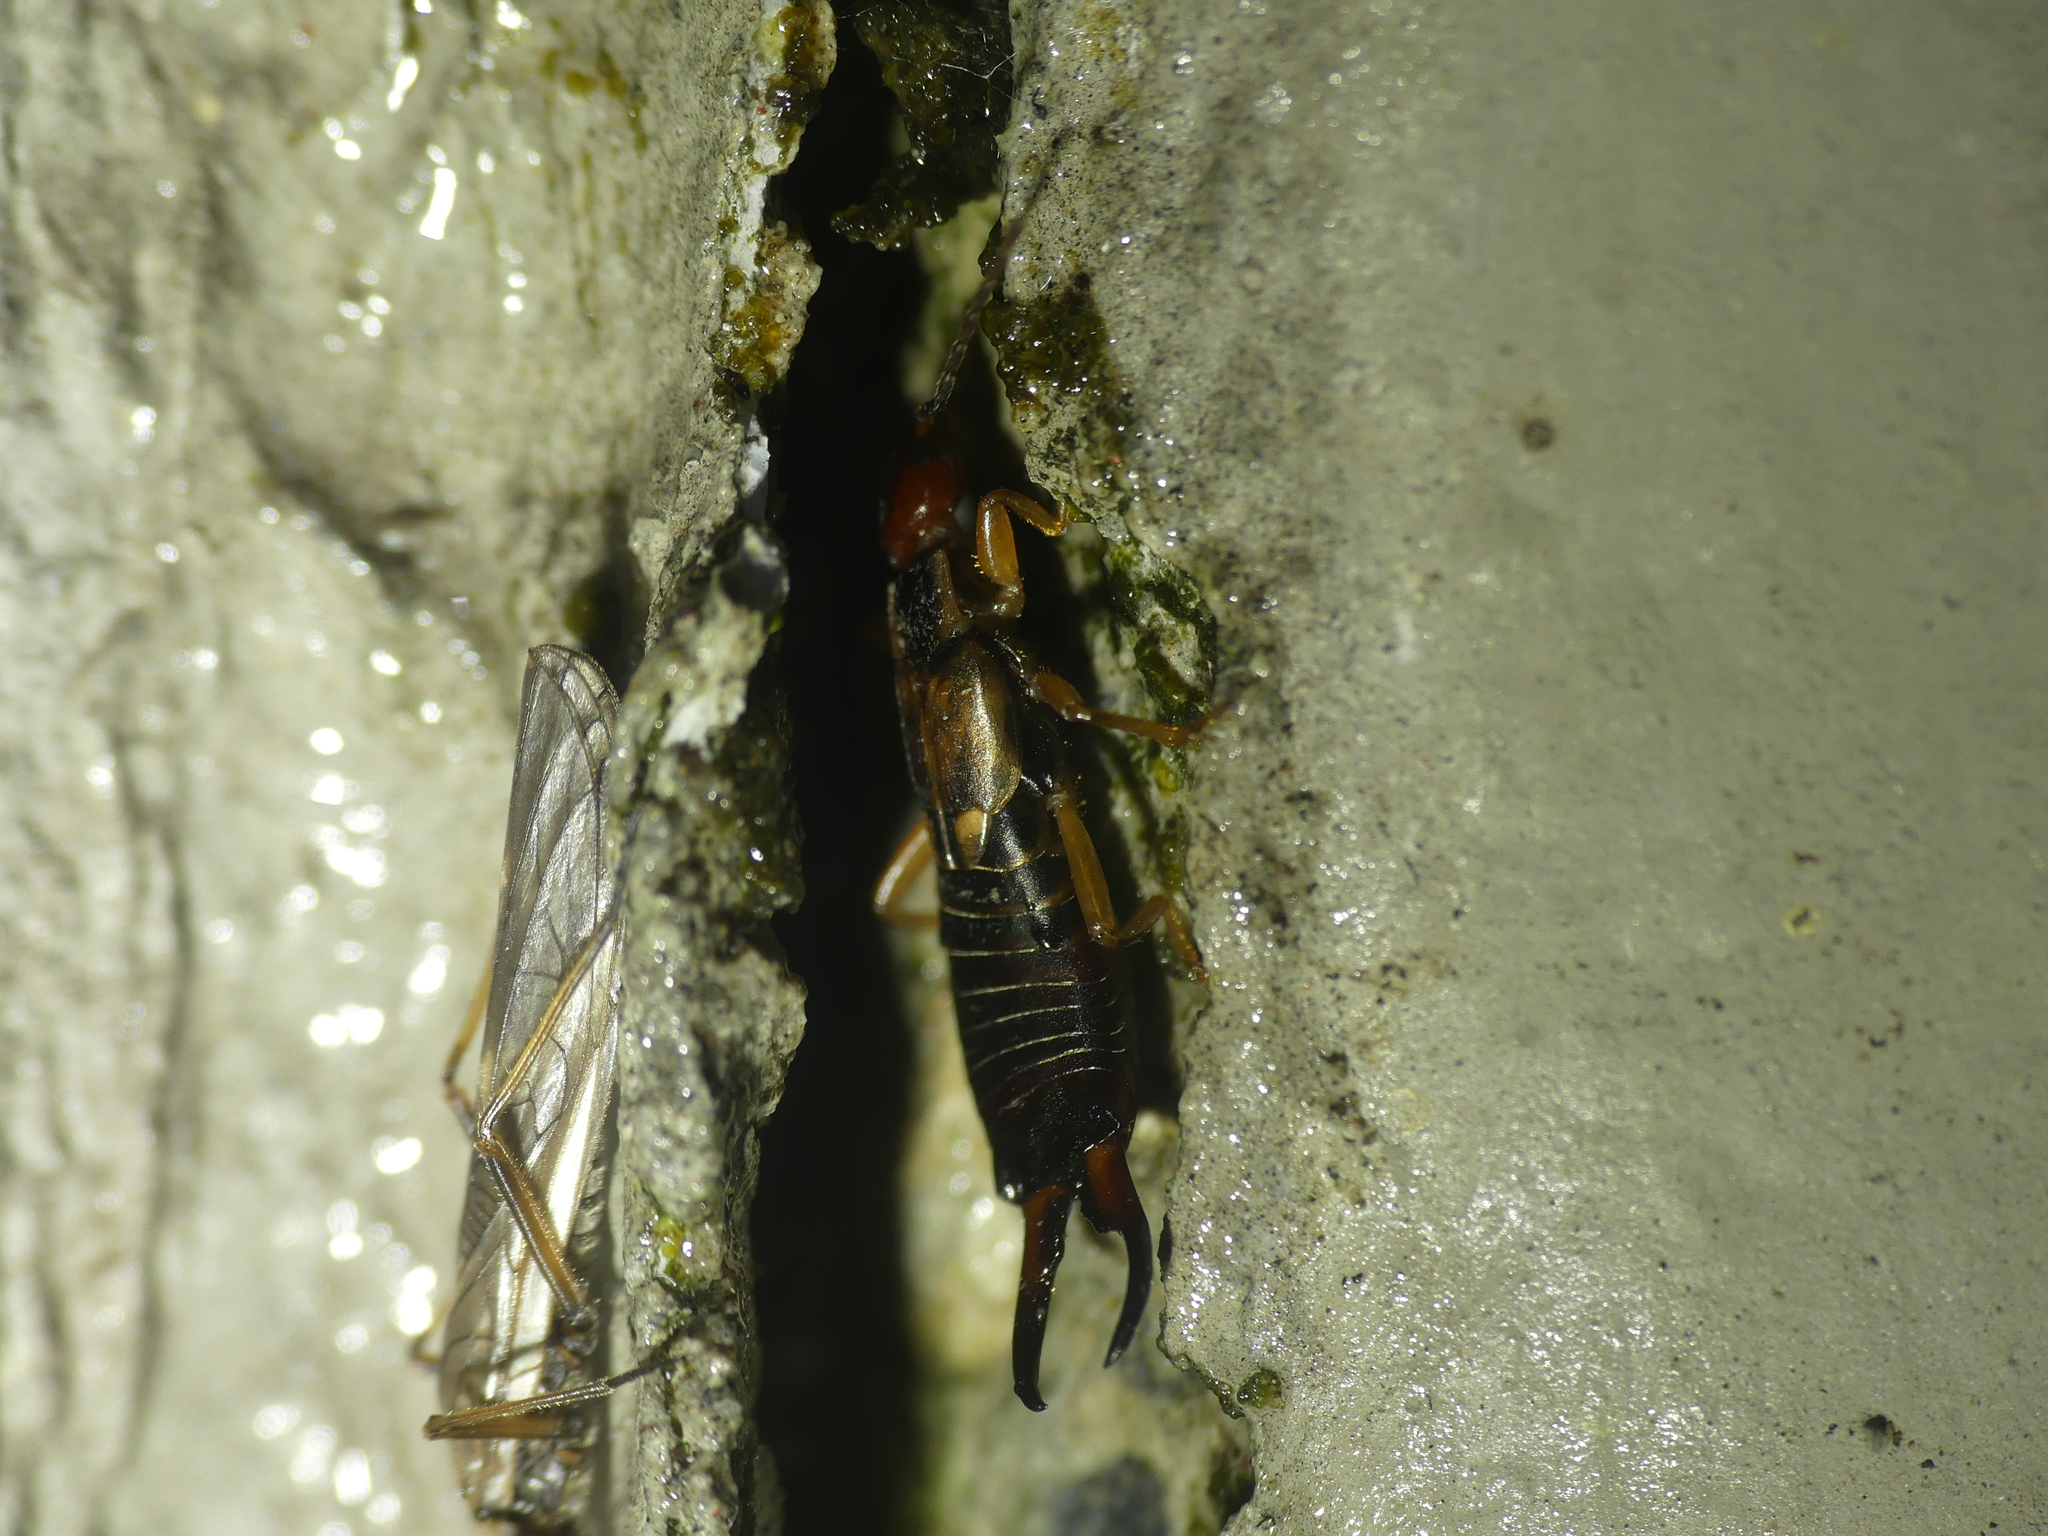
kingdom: Animalia
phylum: Arthropoda
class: Insecta
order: Dermaptera
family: Forficulidae
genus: Forficula
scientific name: Forficula
